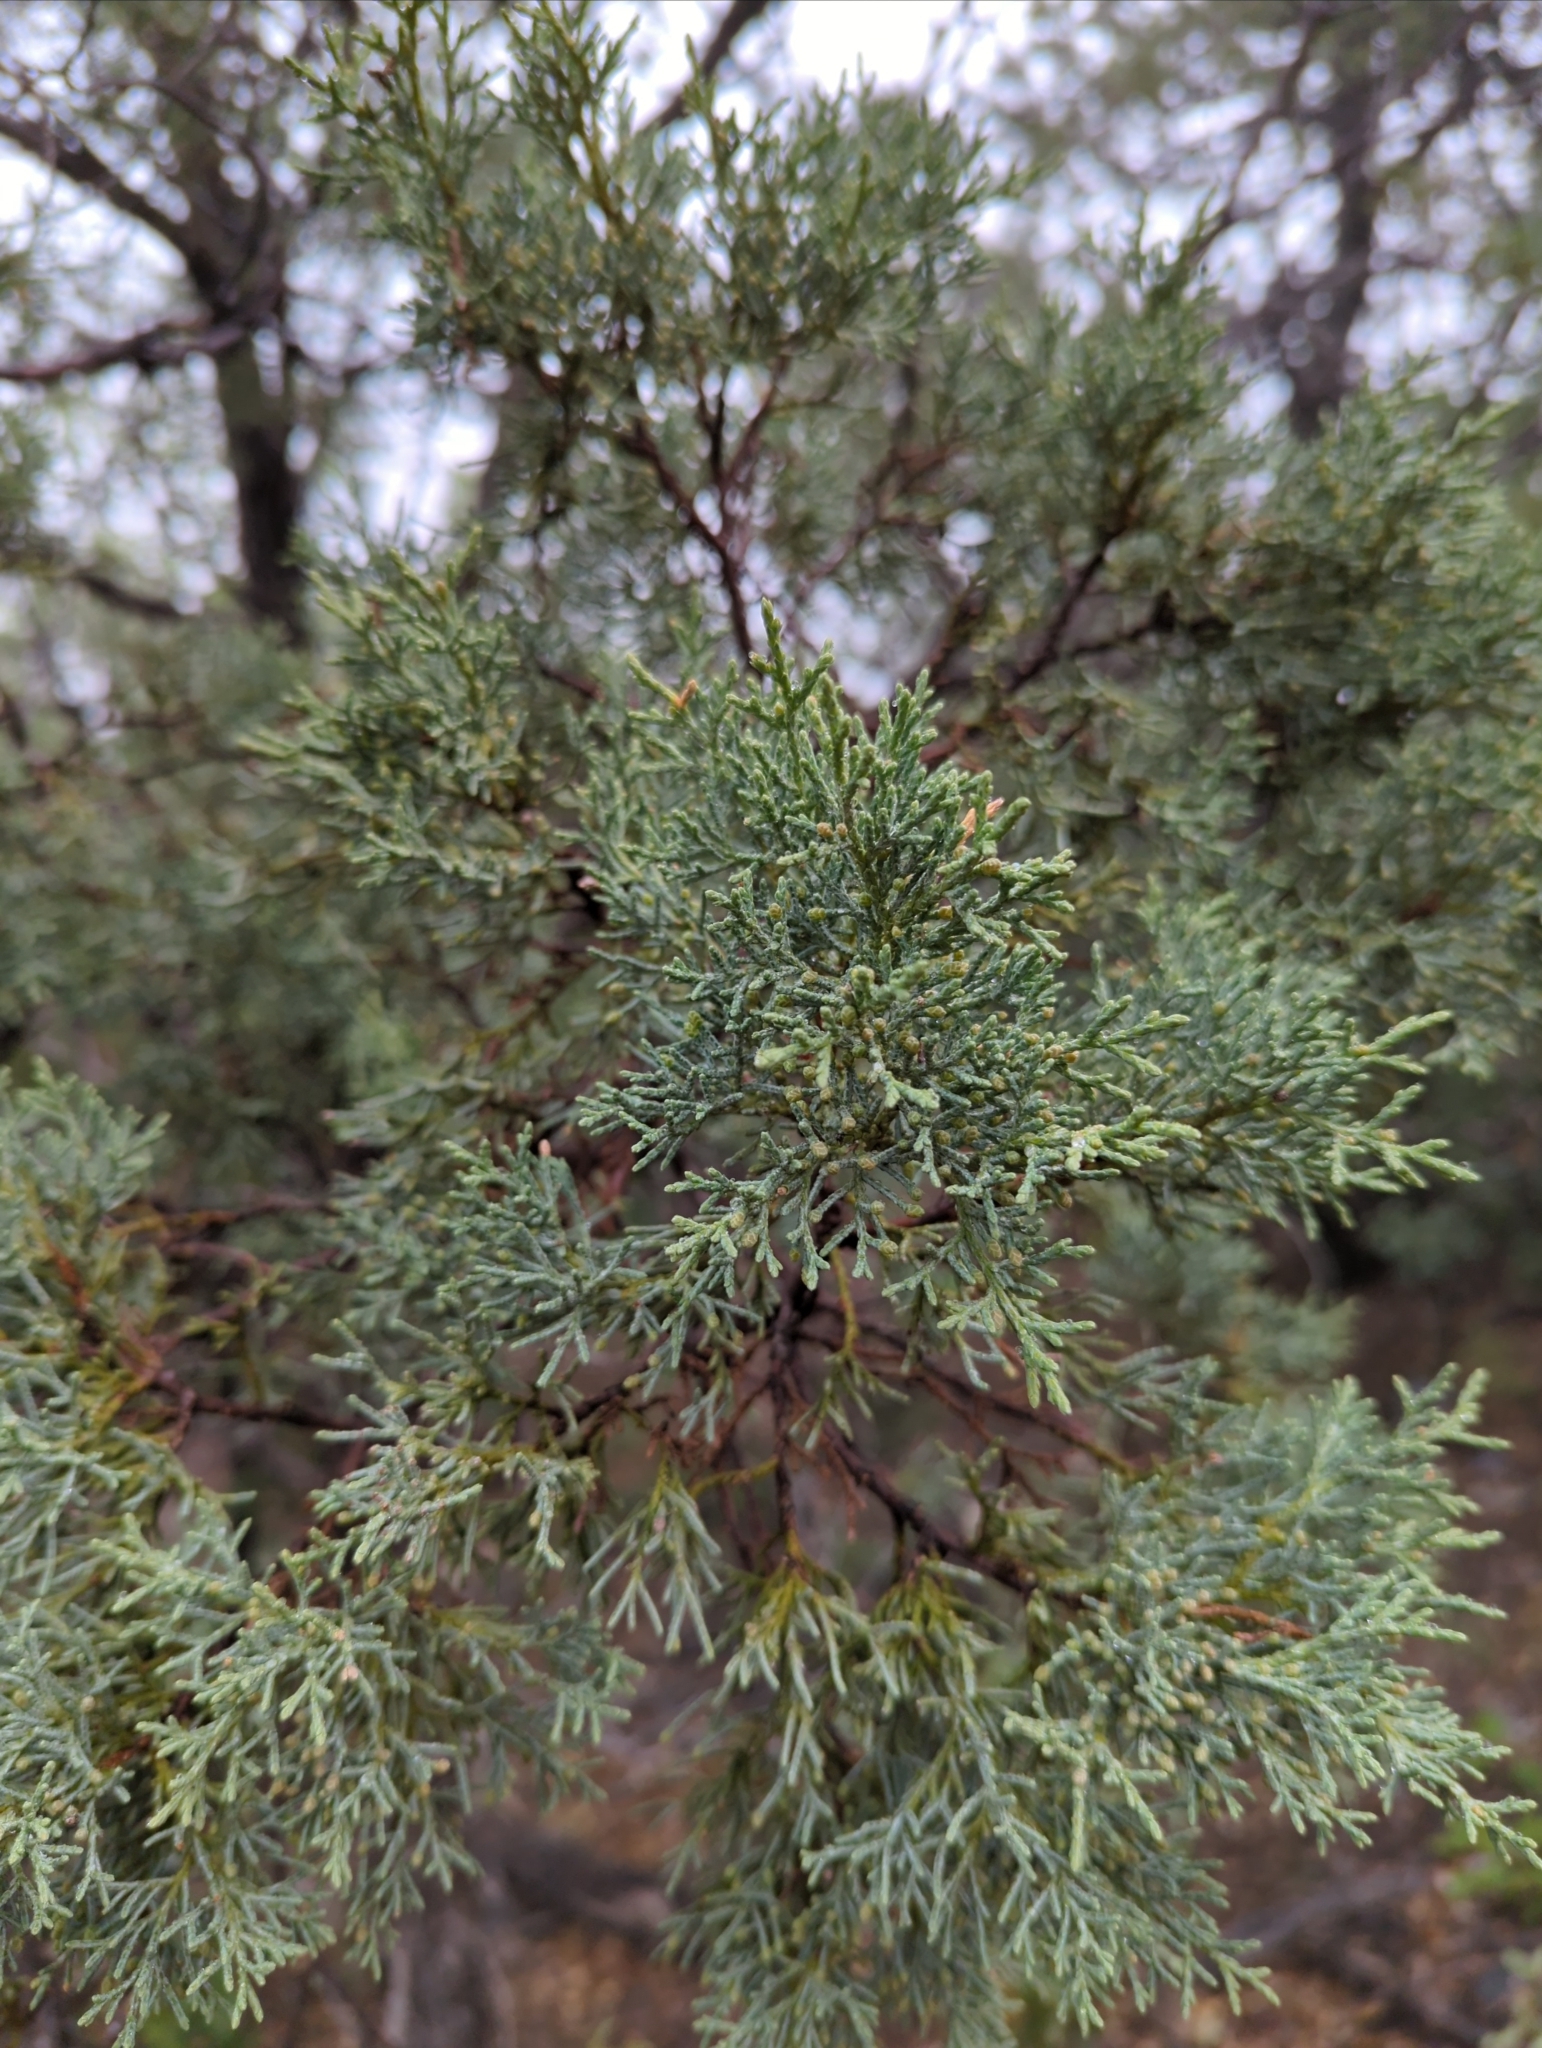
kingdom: Plantae
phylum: Tracheophyta
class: Pinopsida
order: Pinales
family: Cupressaceae
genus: Juniperus
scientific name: Juniperus deppeana
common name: Alligator juniper
